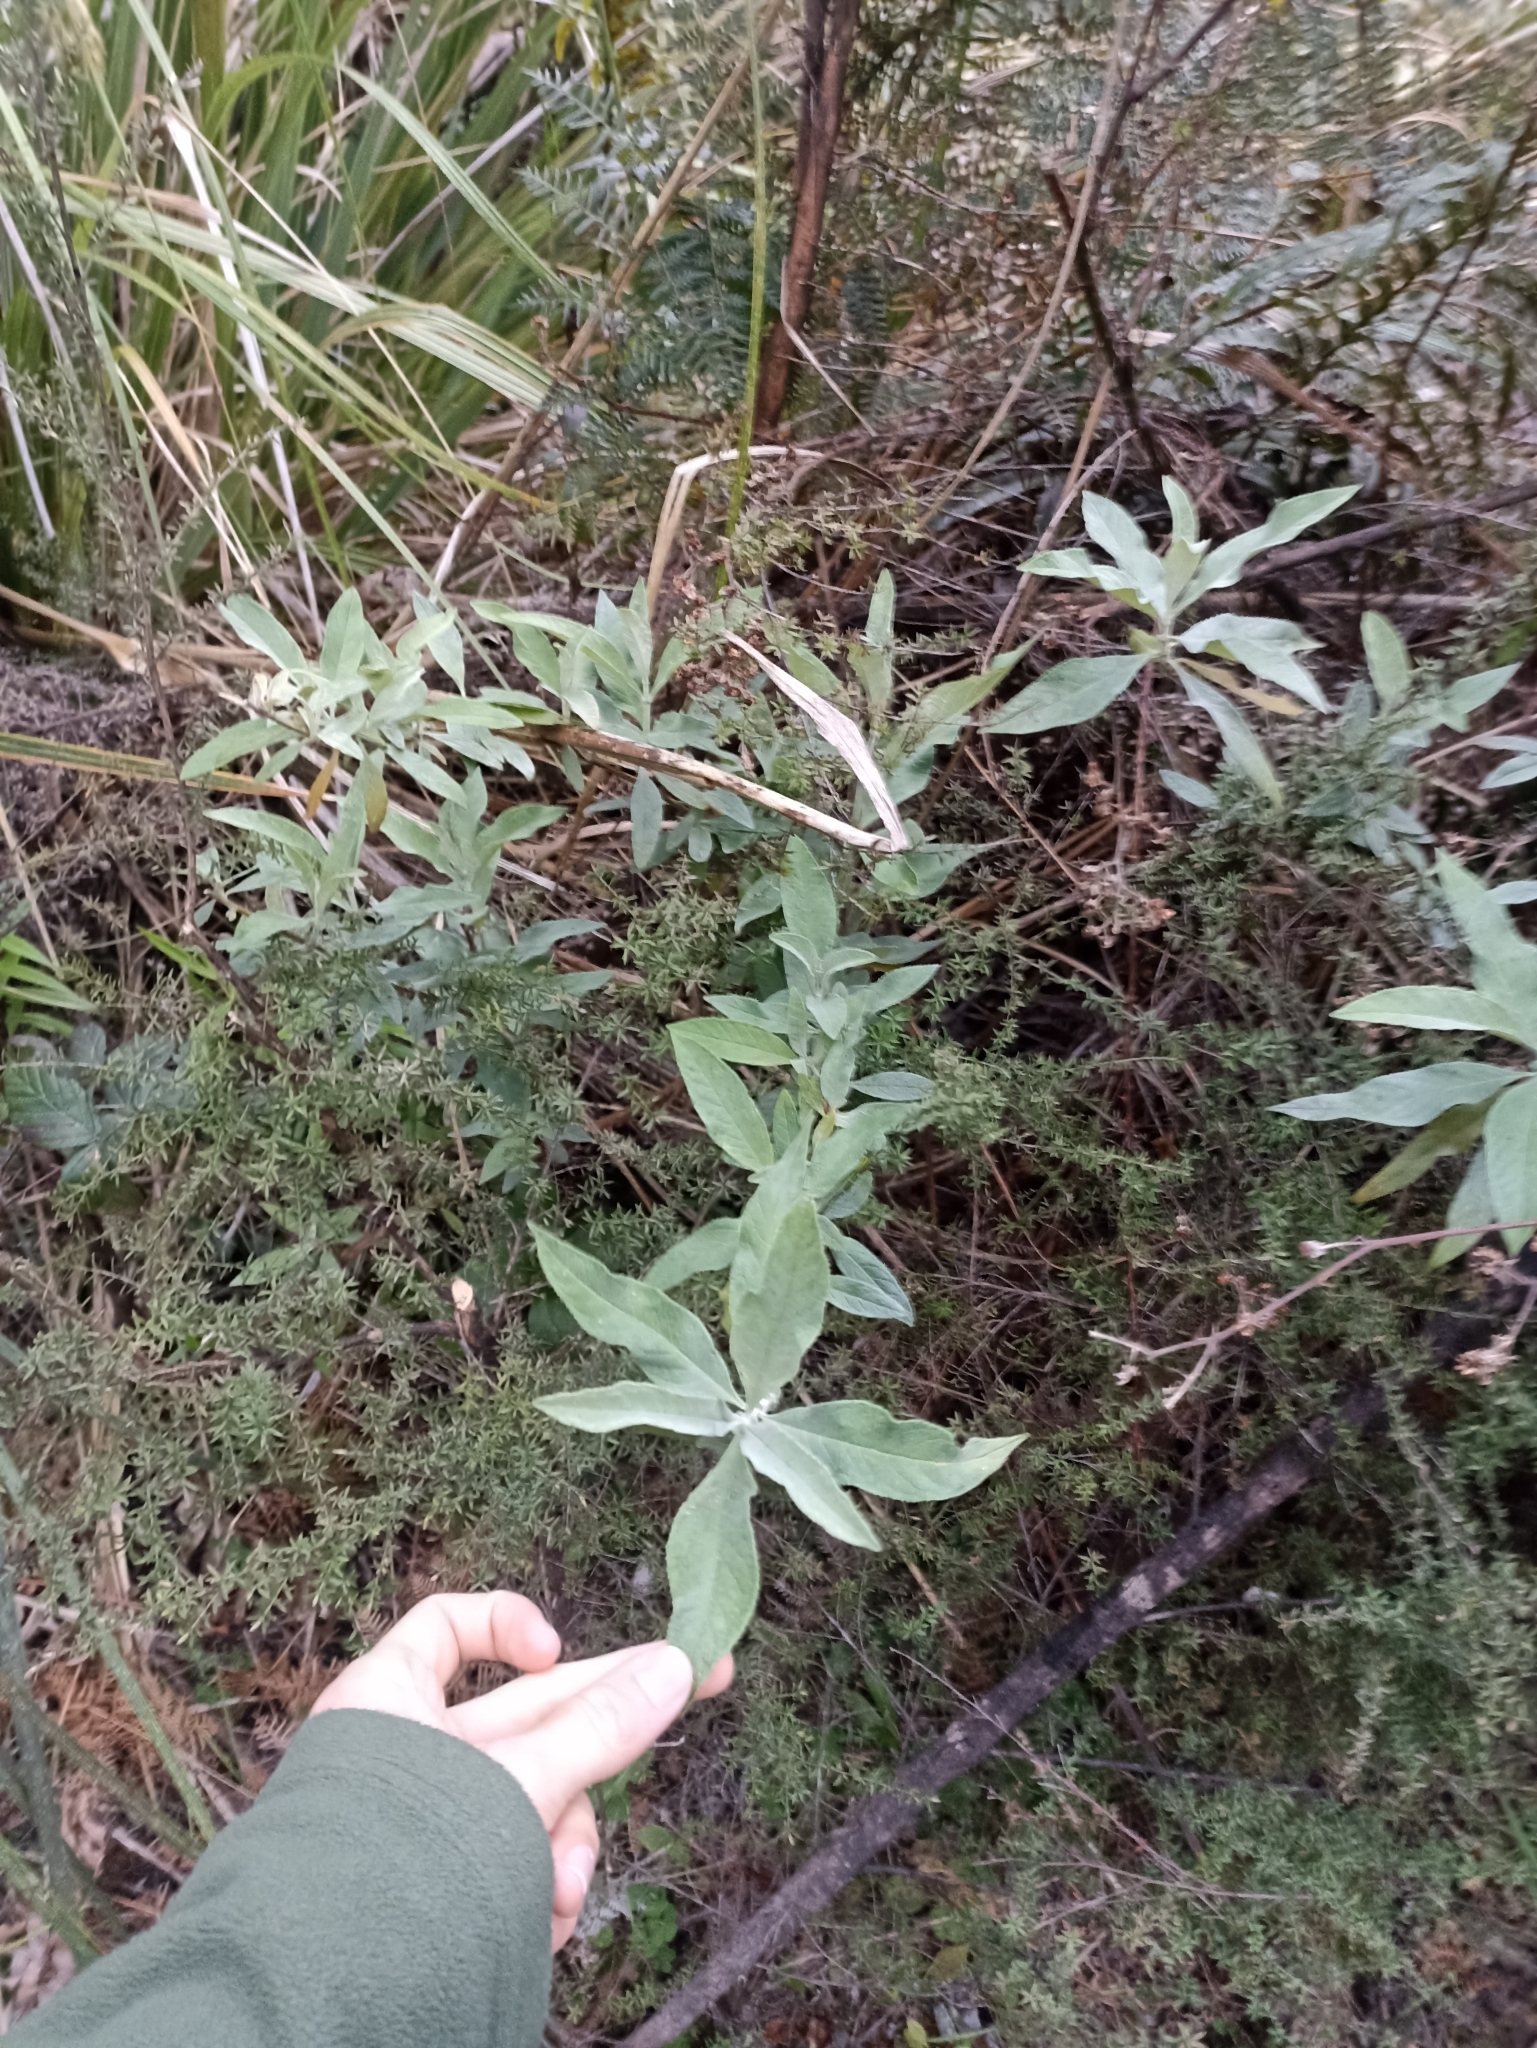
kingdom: Plantae
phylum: Tracheophyta
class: Magnoliopsida
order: Lamiales
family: Scrophulariaceae
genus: Buddleja
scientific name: Buddleja davidii
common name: Butterfly-bush
